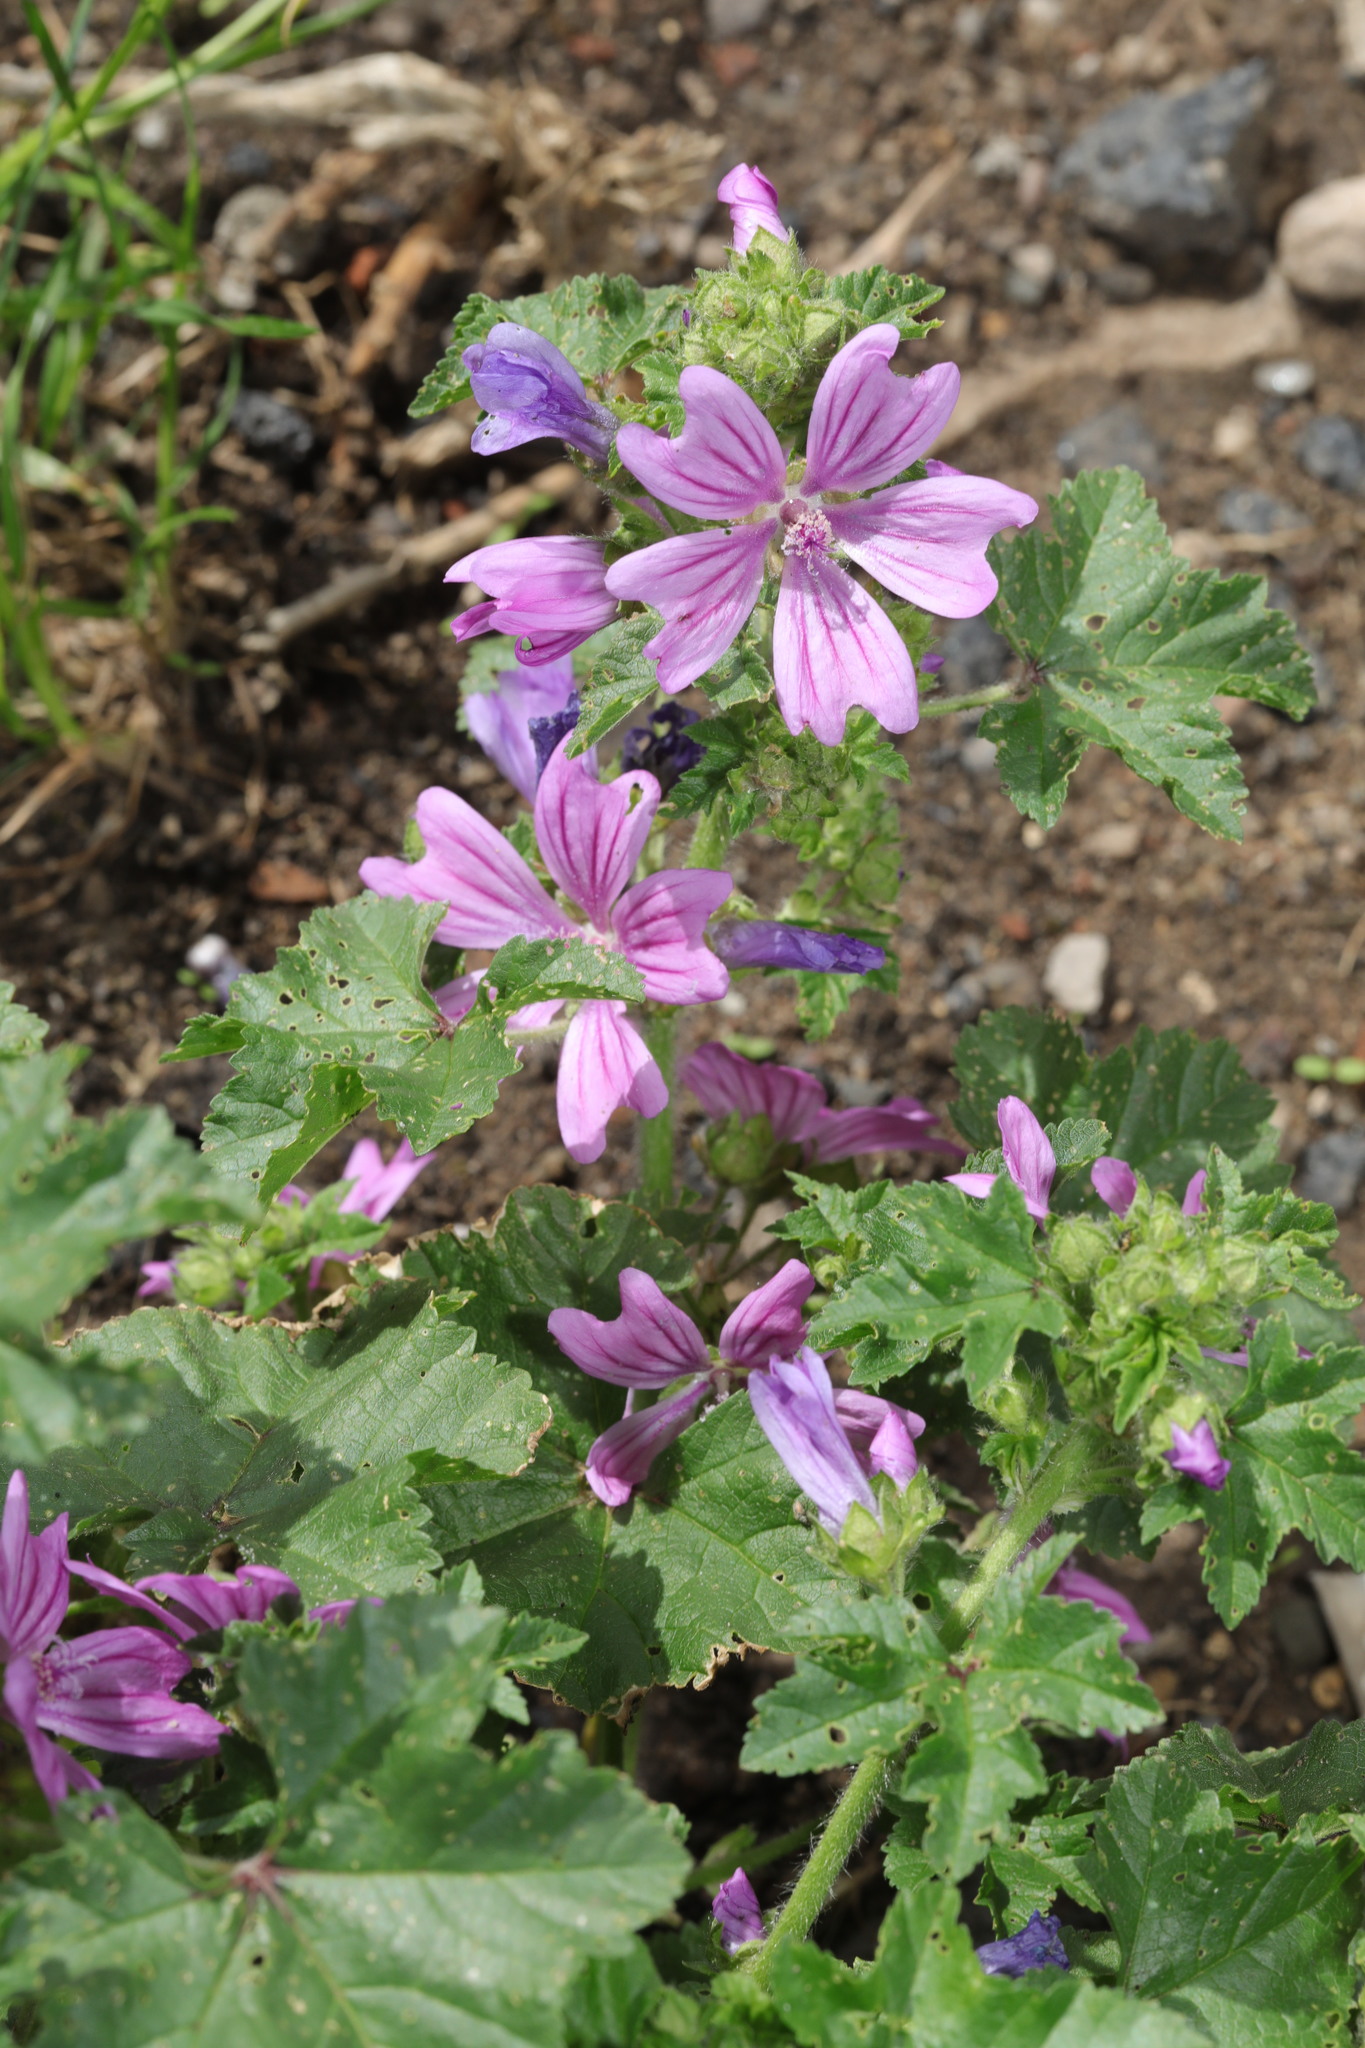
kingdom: Plantae
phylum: Tracheophyta
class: Magnoliopsida
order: Malvales
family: Malvaceae
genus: Malva
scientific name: Malva sylvestris
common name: Common mallow
